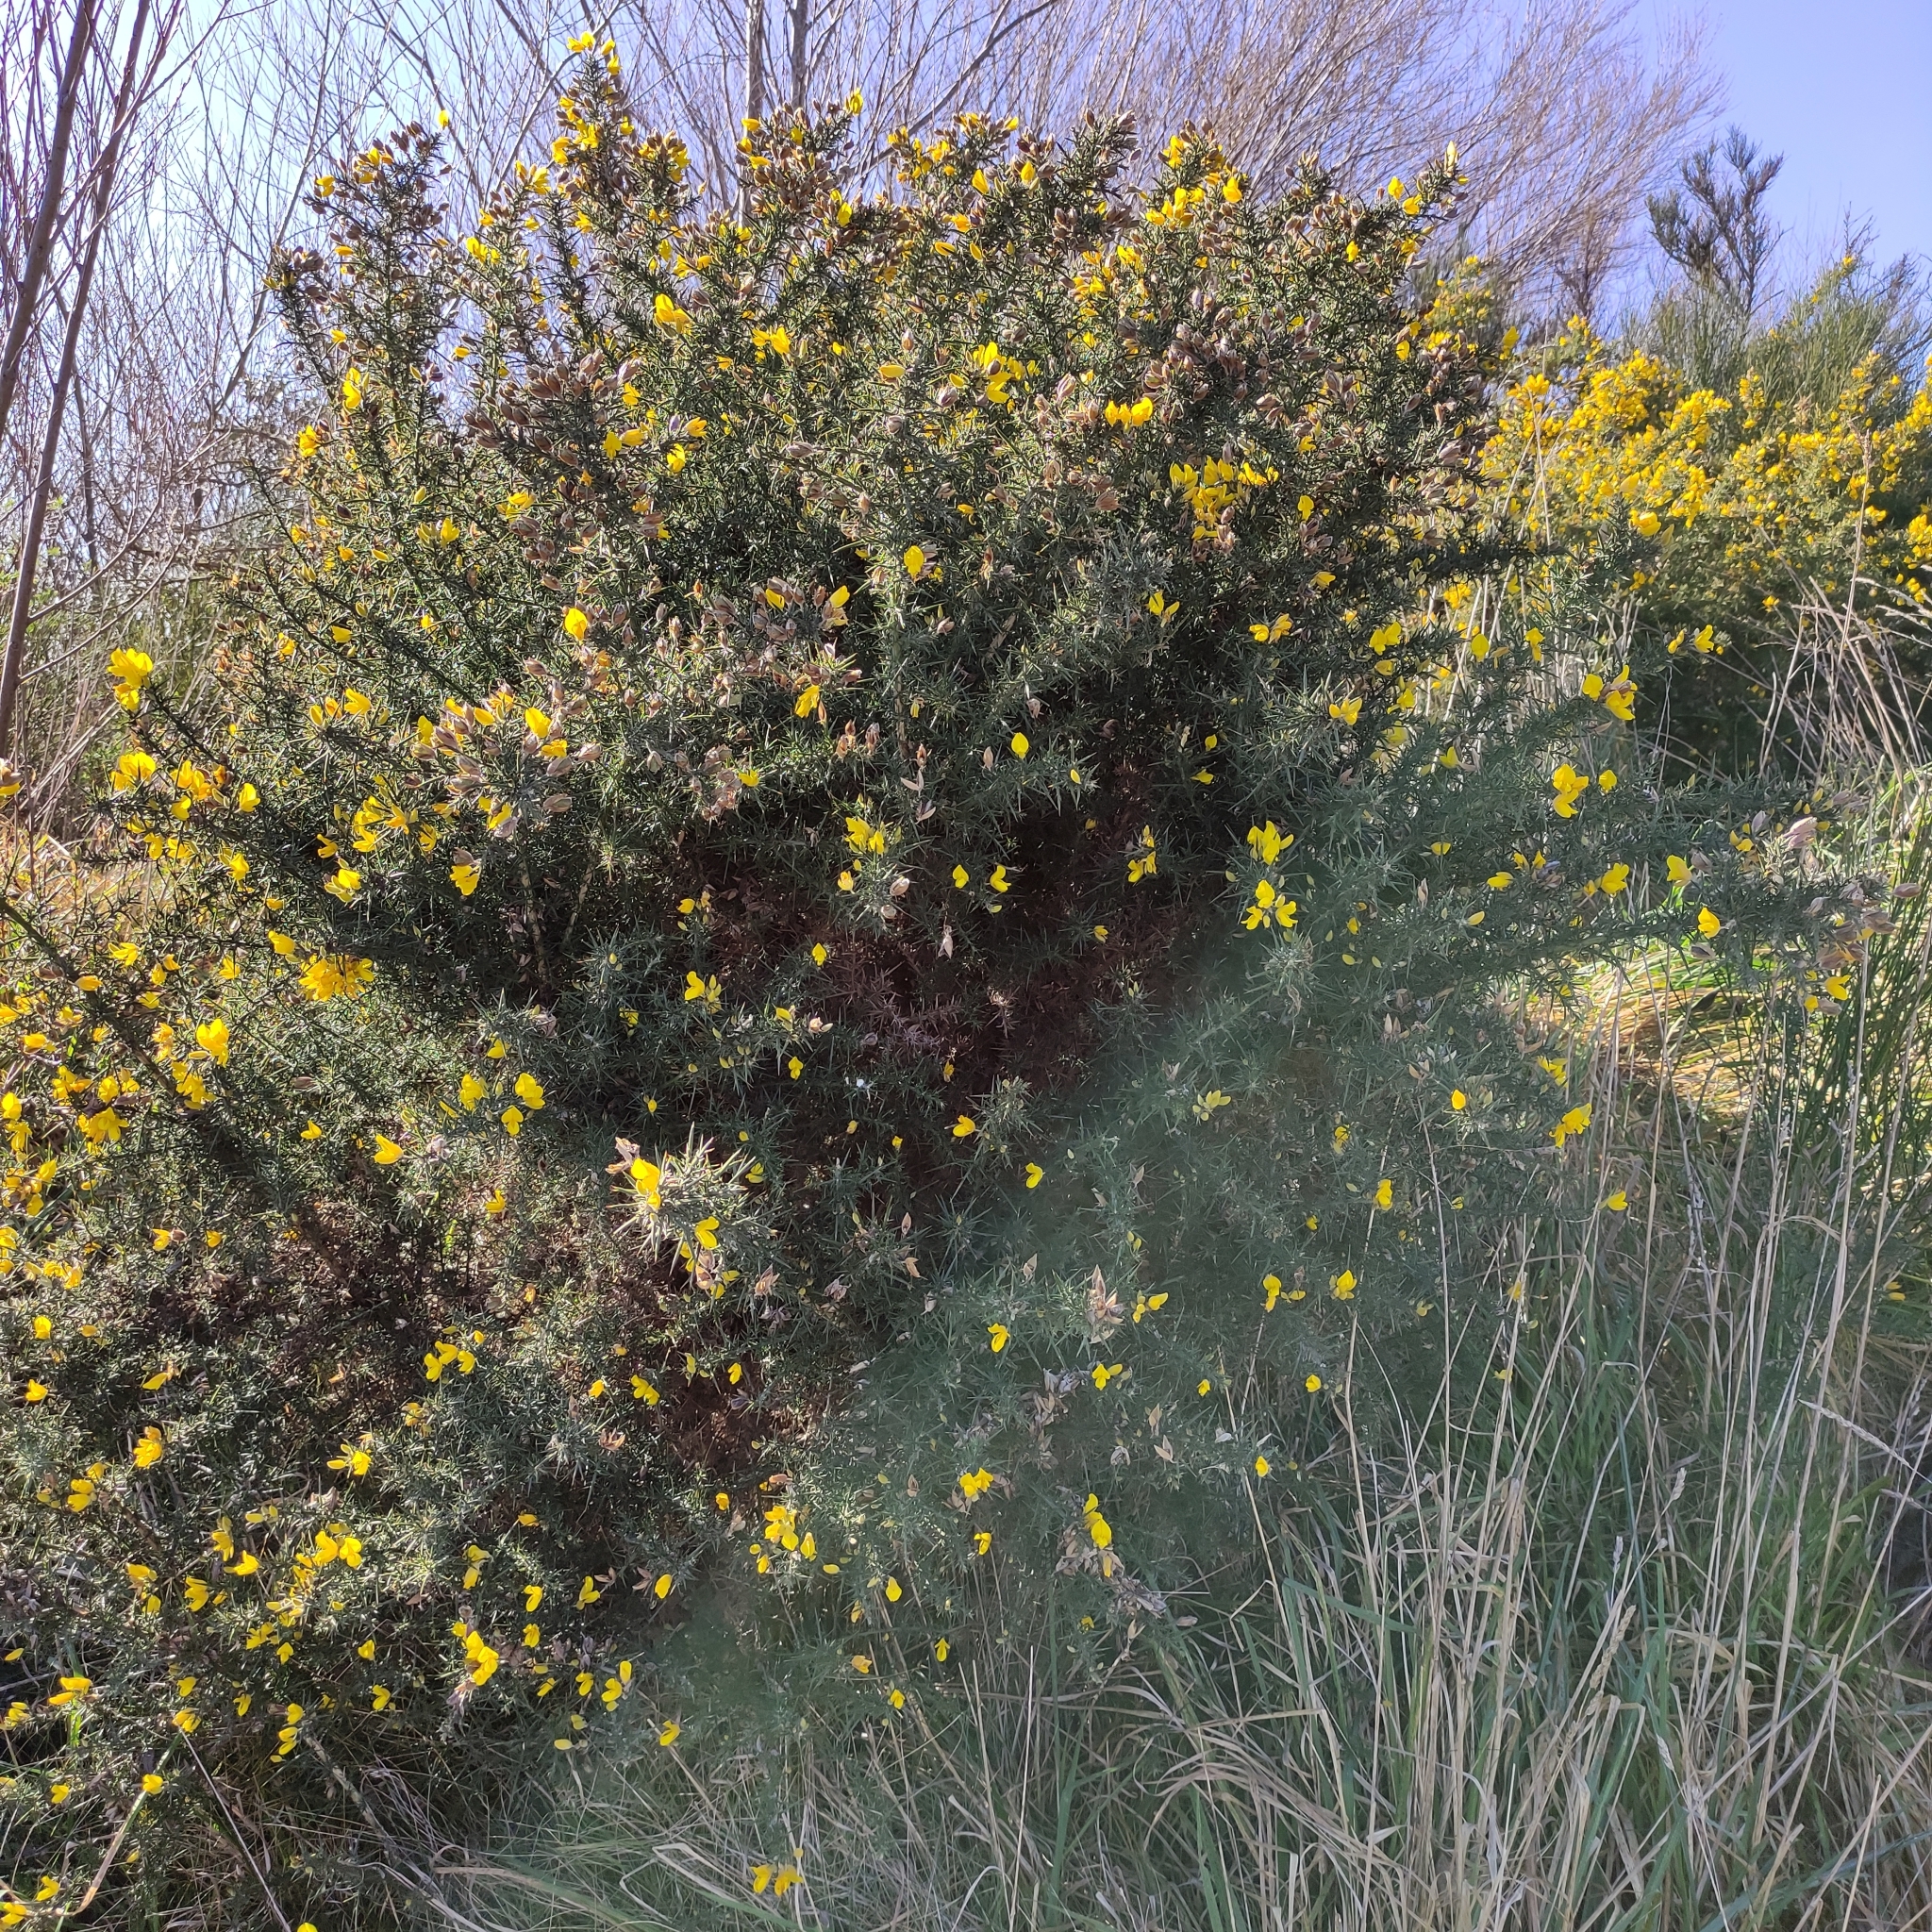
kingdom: Plantae
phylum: Tracheophyta
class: Magnoliopsida
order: Fabales
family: Fabaceae
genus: Ulex
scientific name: Ulex europaeus
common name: Common gorse
